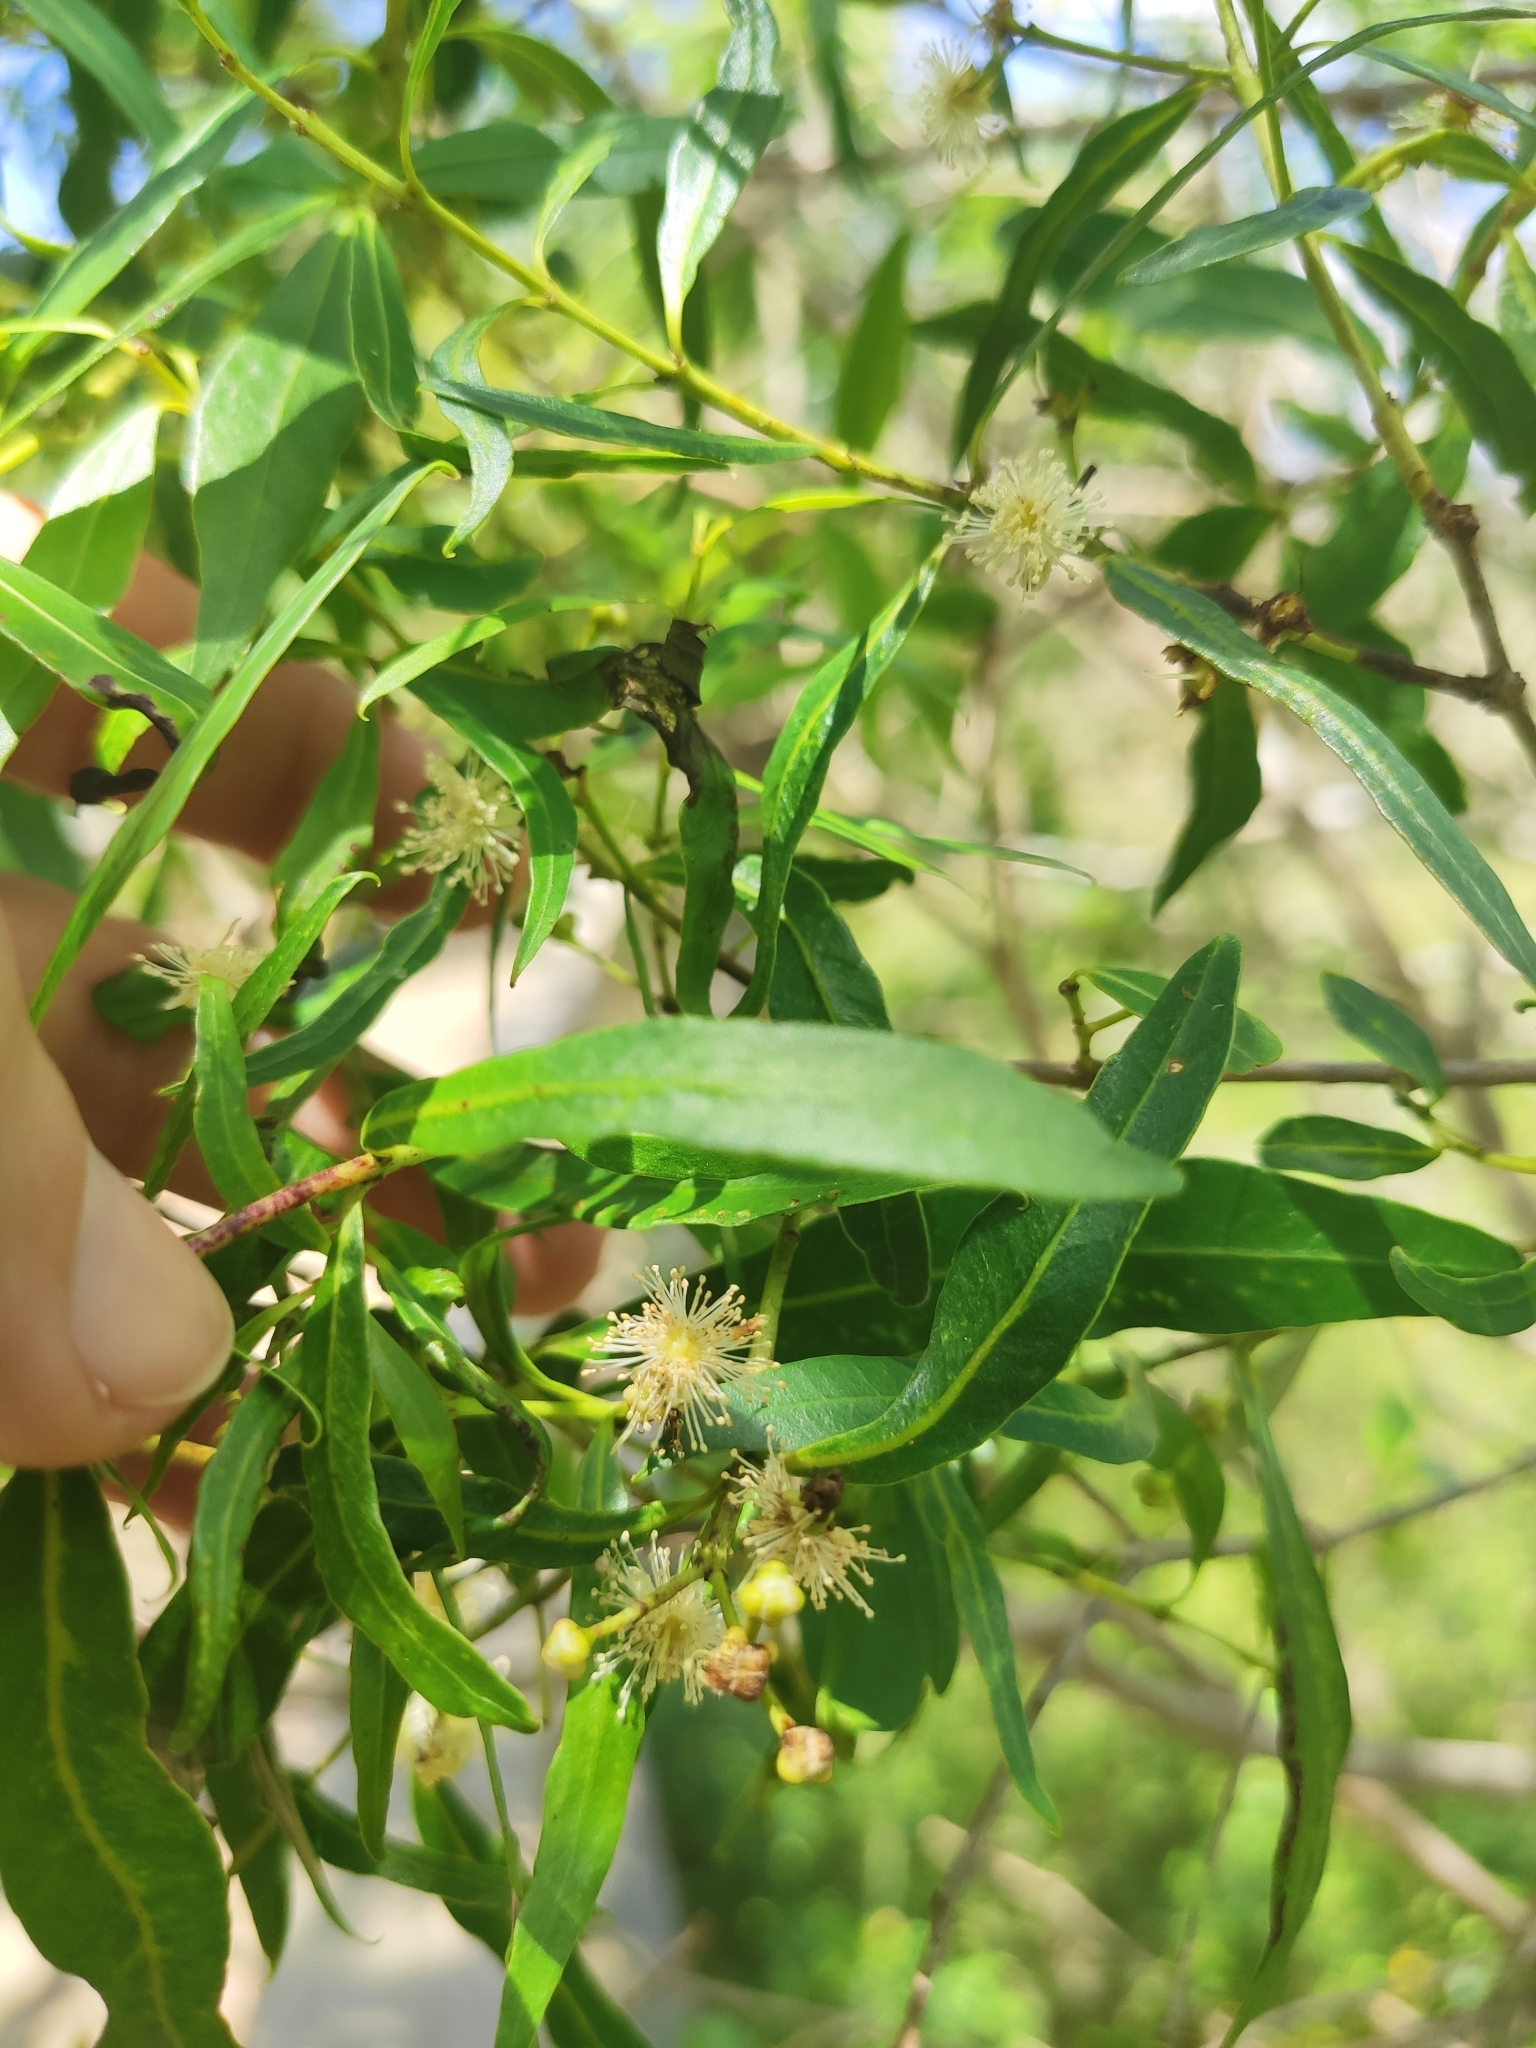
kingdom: Plantae
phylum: Tracheophyta
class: Magnoliopsida
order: Myrtales
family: Myrtaceae
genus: Blepharocalyx
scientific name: Blepharocalyx salicifolius
